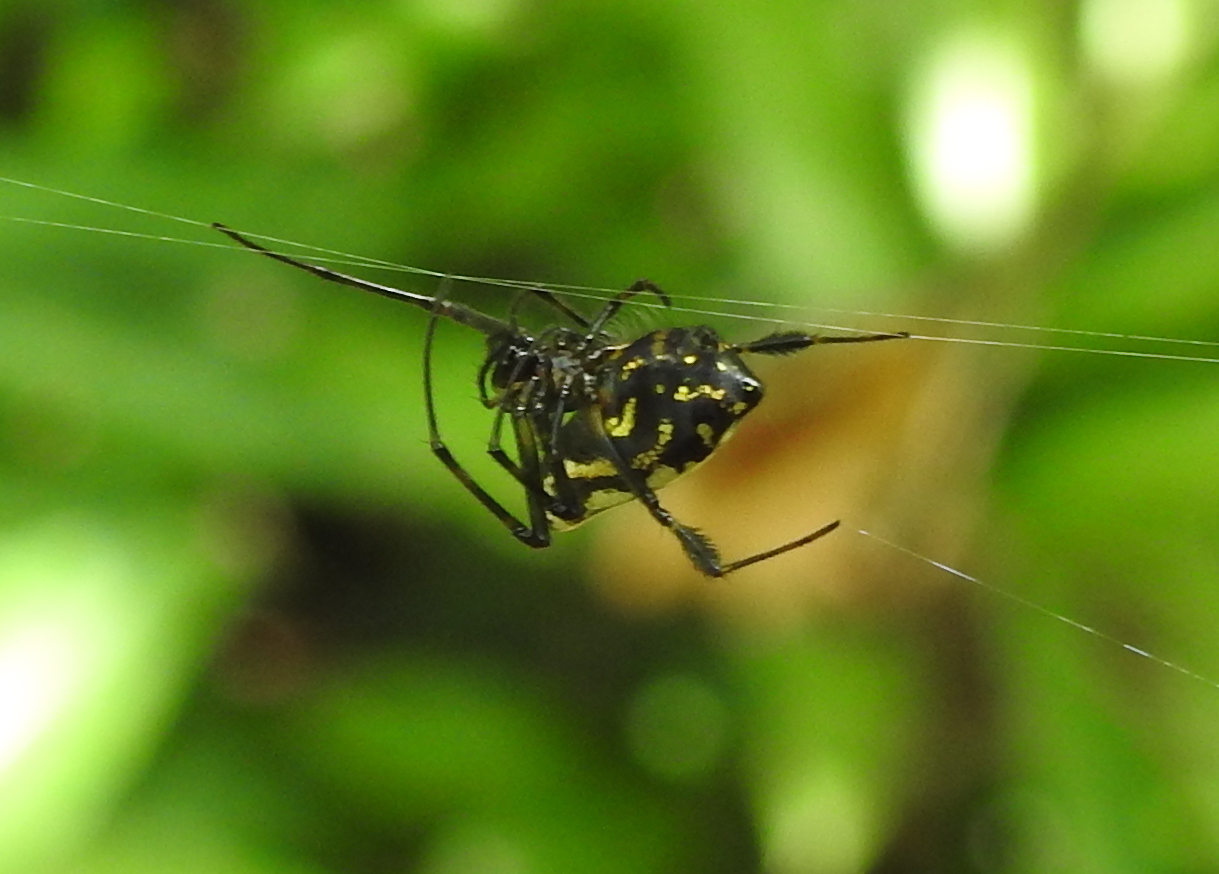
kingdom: Animalia
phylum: Arthropoda
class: Arachnida
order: Araneae
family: Tetragnathidae
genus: Leucauge
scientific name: Leucauge fastigata
